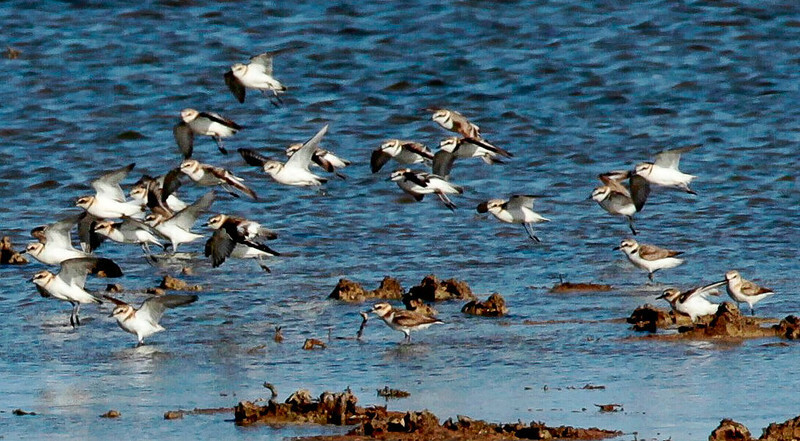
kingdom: Animalia
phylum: Chordata
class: Aves
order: Charadriiformes
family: Charadriidae
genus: Charadrius
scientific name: Charadrius alexandrinus
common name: Kentish plover
